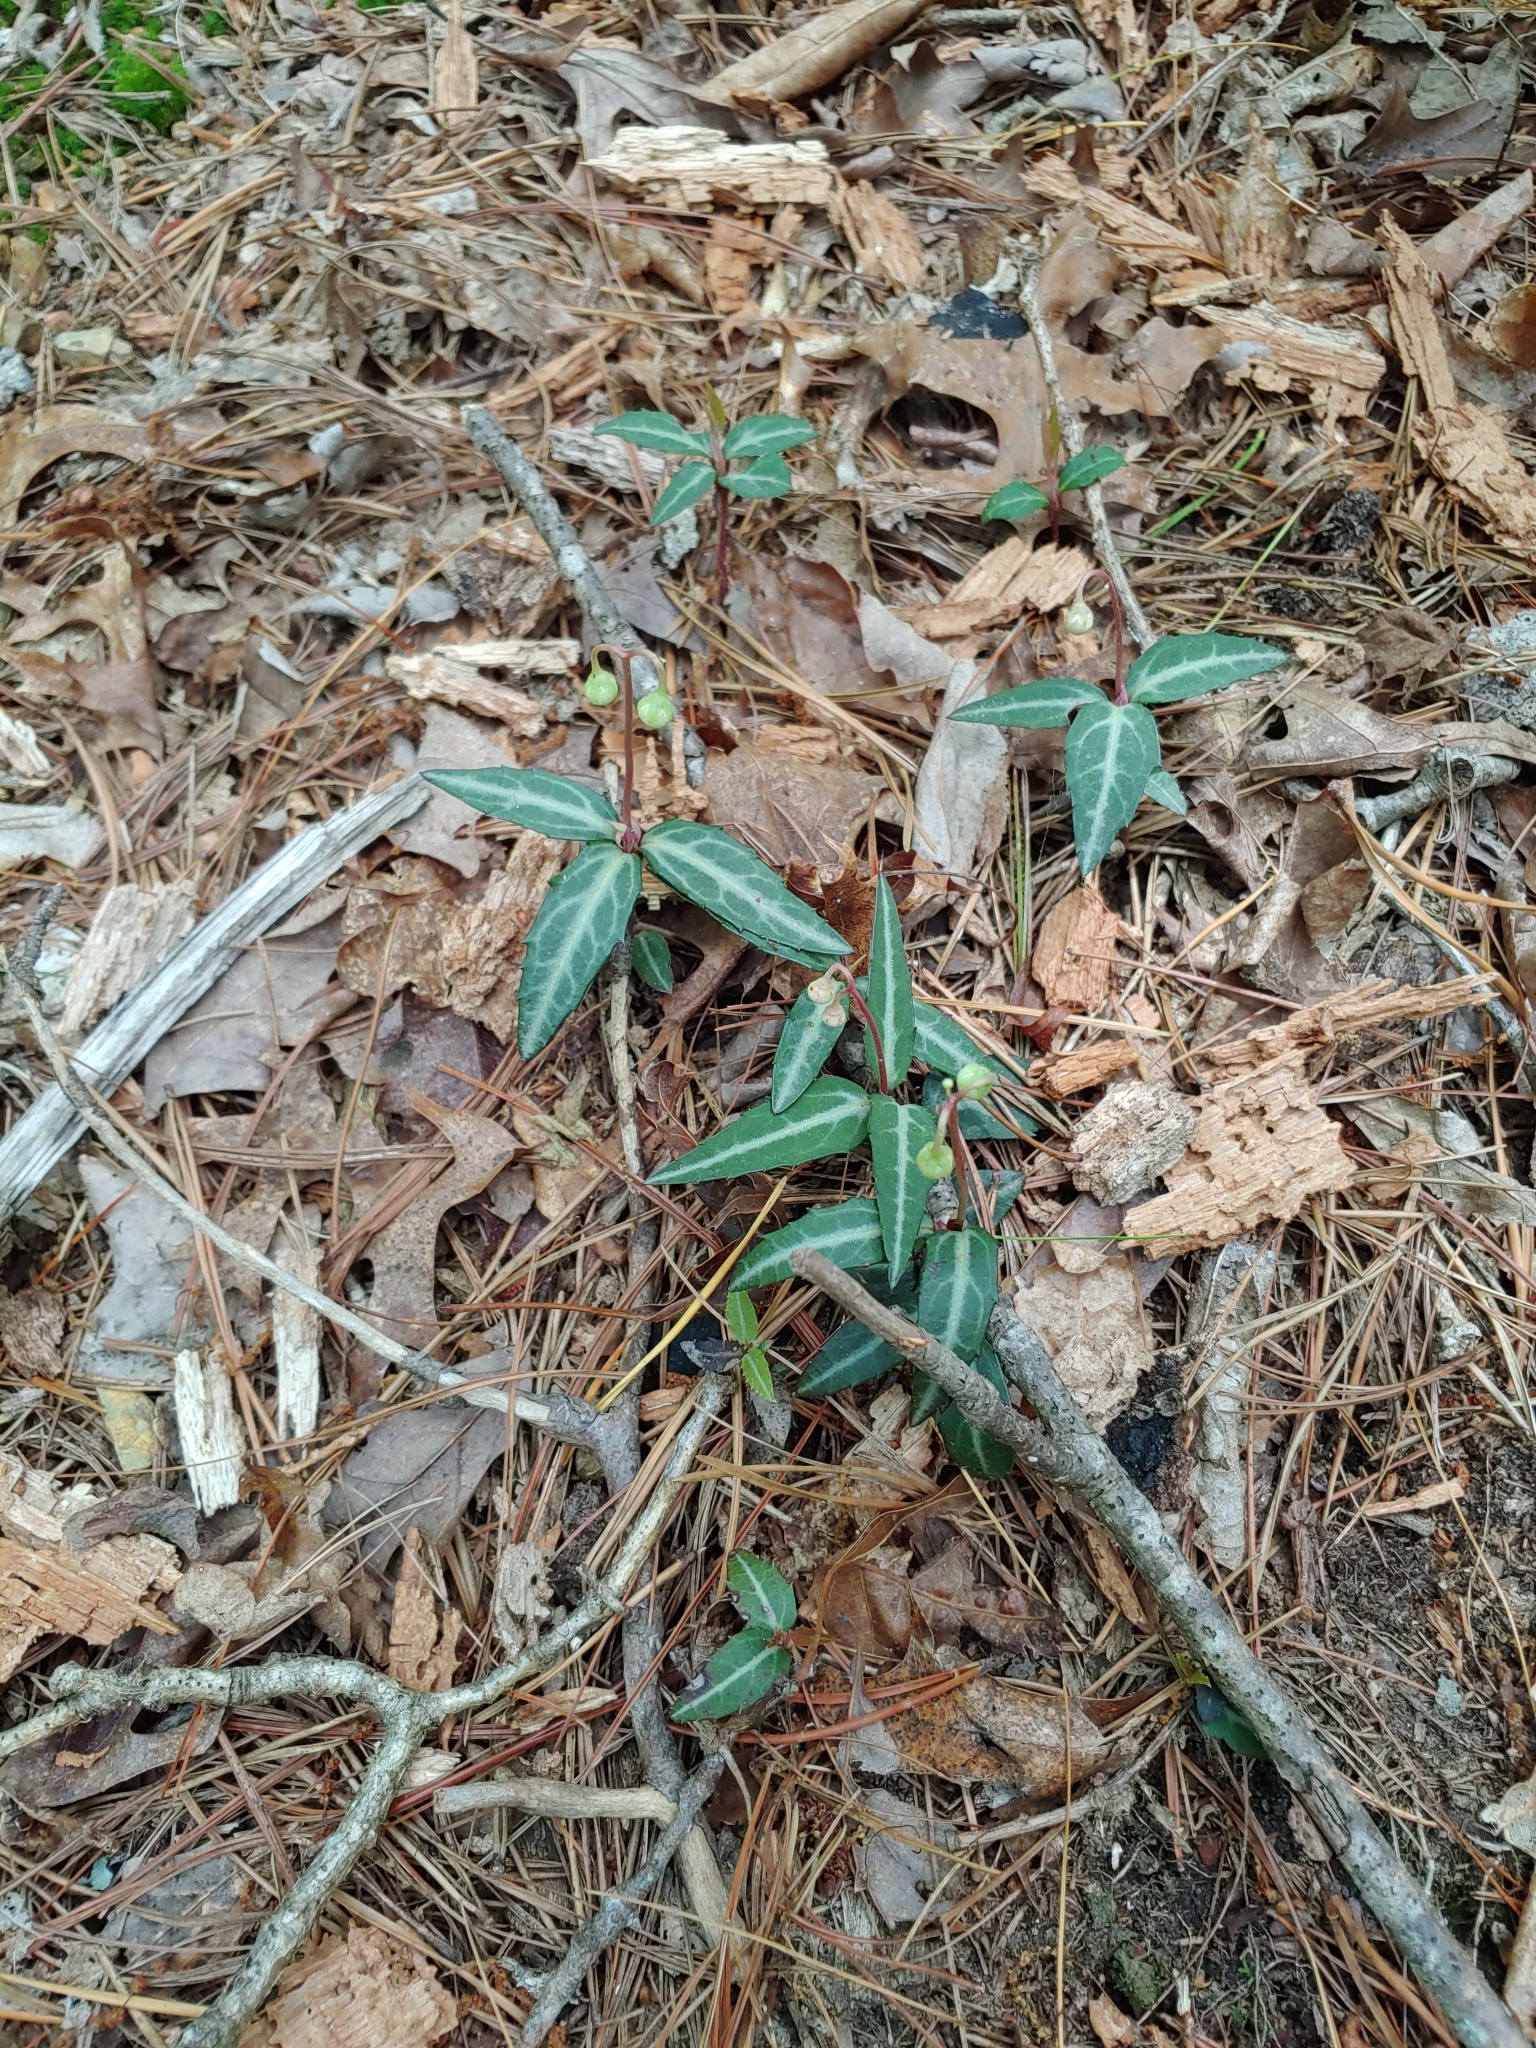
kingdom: Plantae
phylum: Tracheophyta
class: Magnoliopsida
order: Ericales
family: Ericaceae
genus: Chimaphila
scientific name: Chimaphila maculata
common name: Spotted pipsissewa
